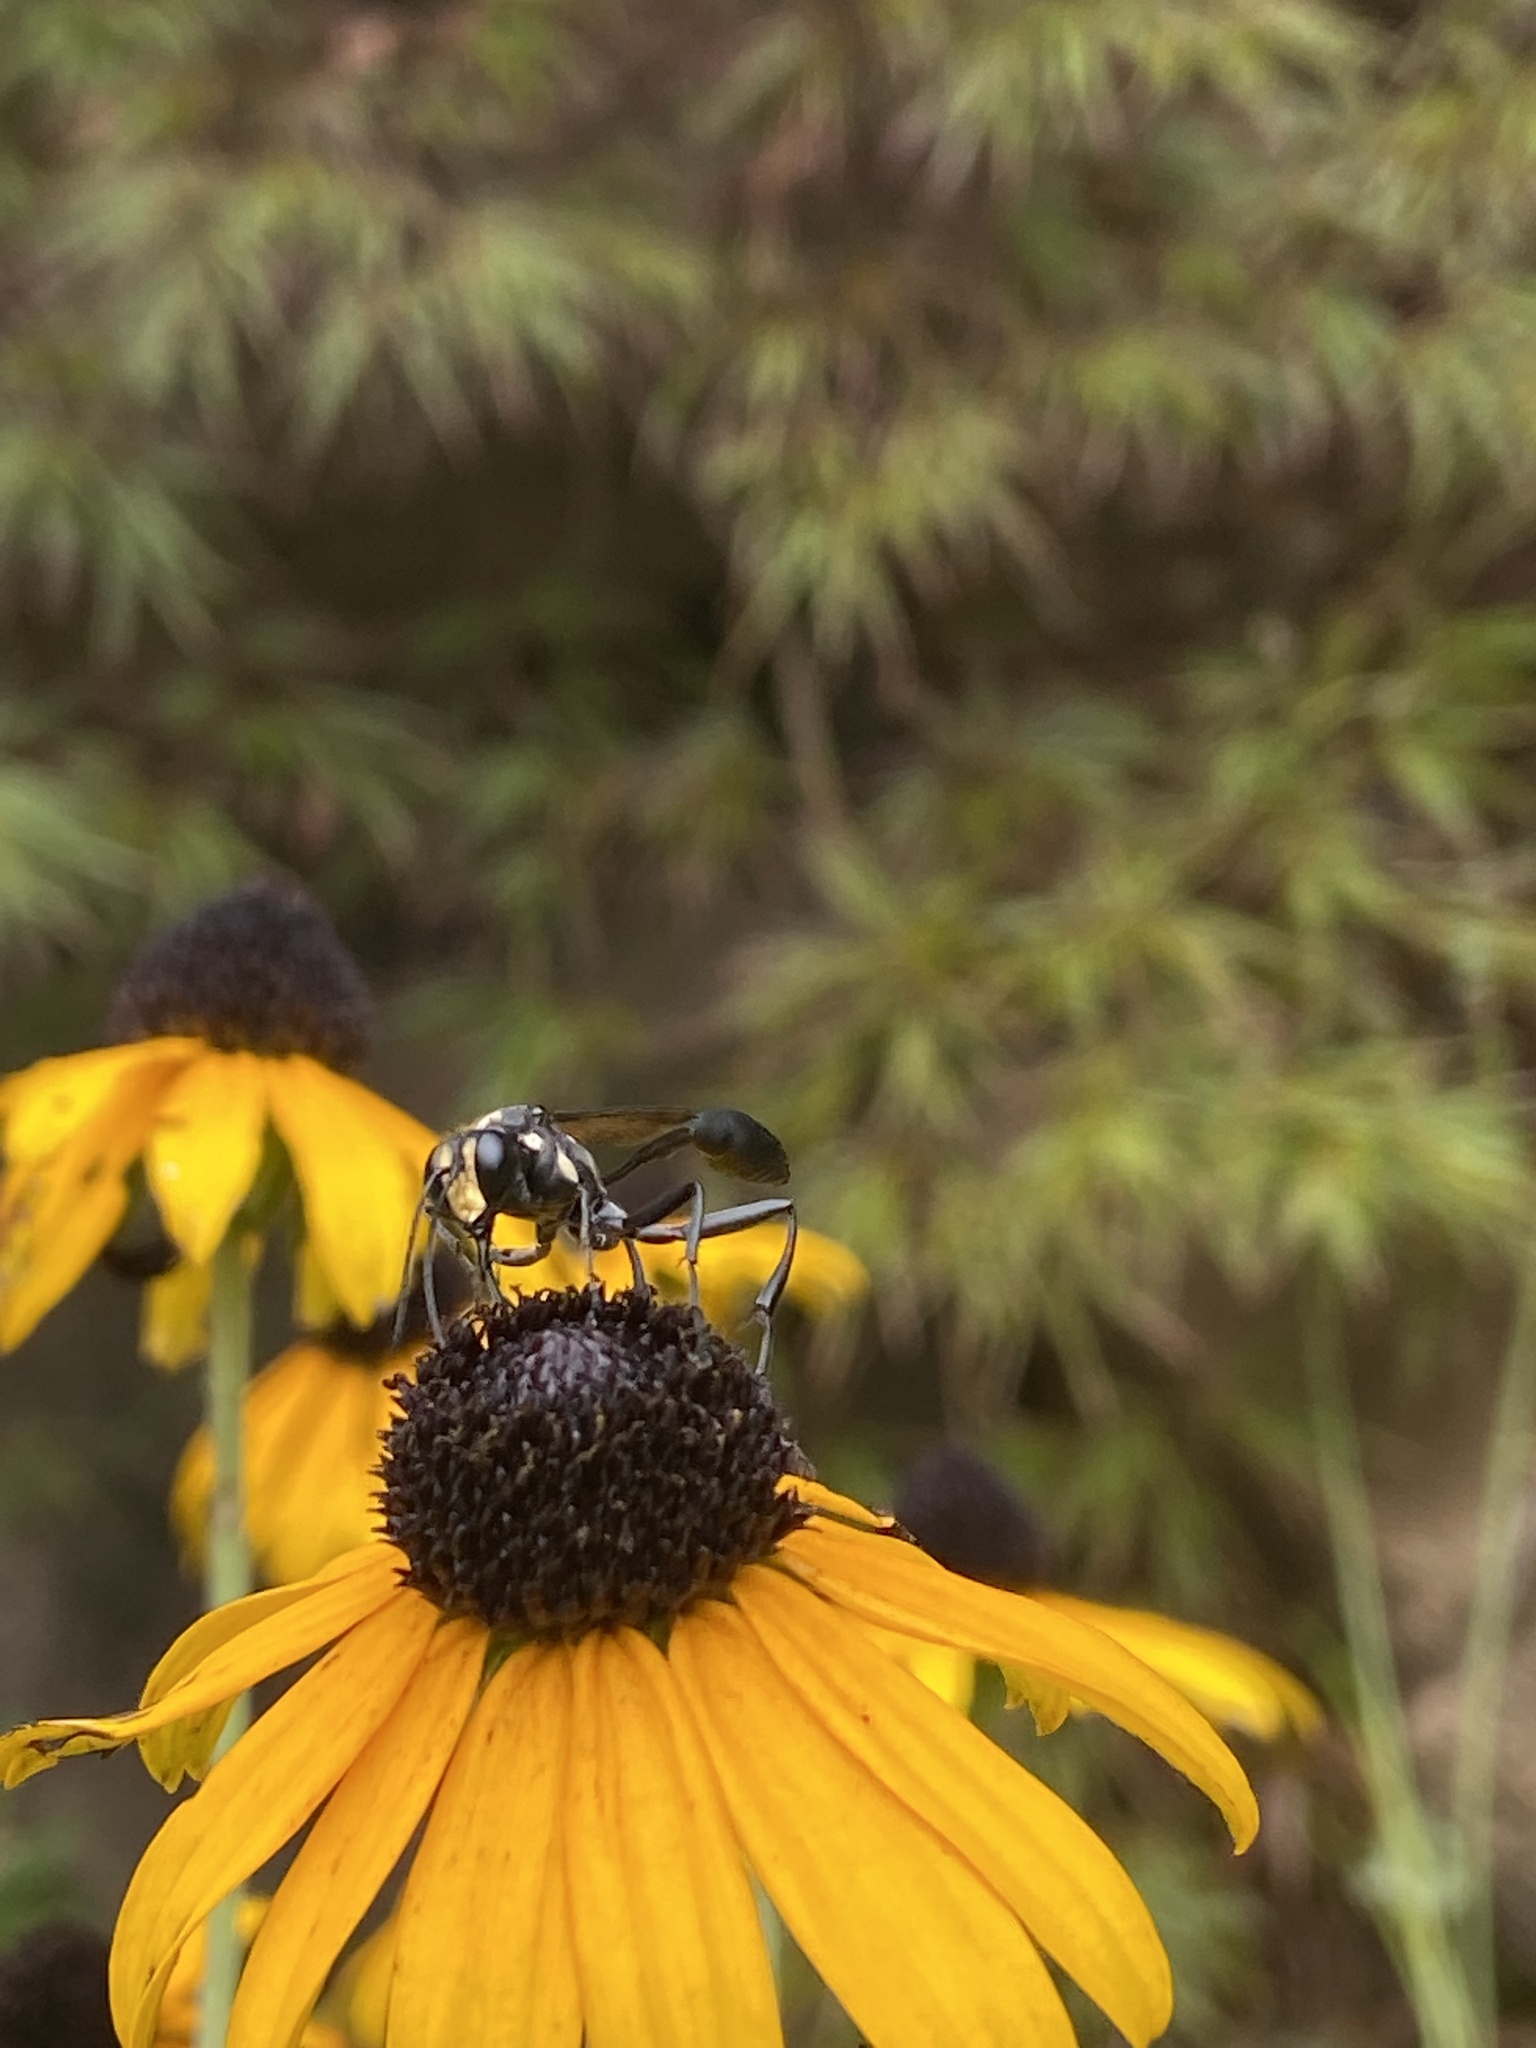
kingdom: Animalia
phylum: Arthropoda
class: Insecta
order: Hymenoptera
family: Sphecidae
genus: Eremnophila
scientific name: Eremnophila aureonotata
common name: Gold-marked thread-waisted wasp
